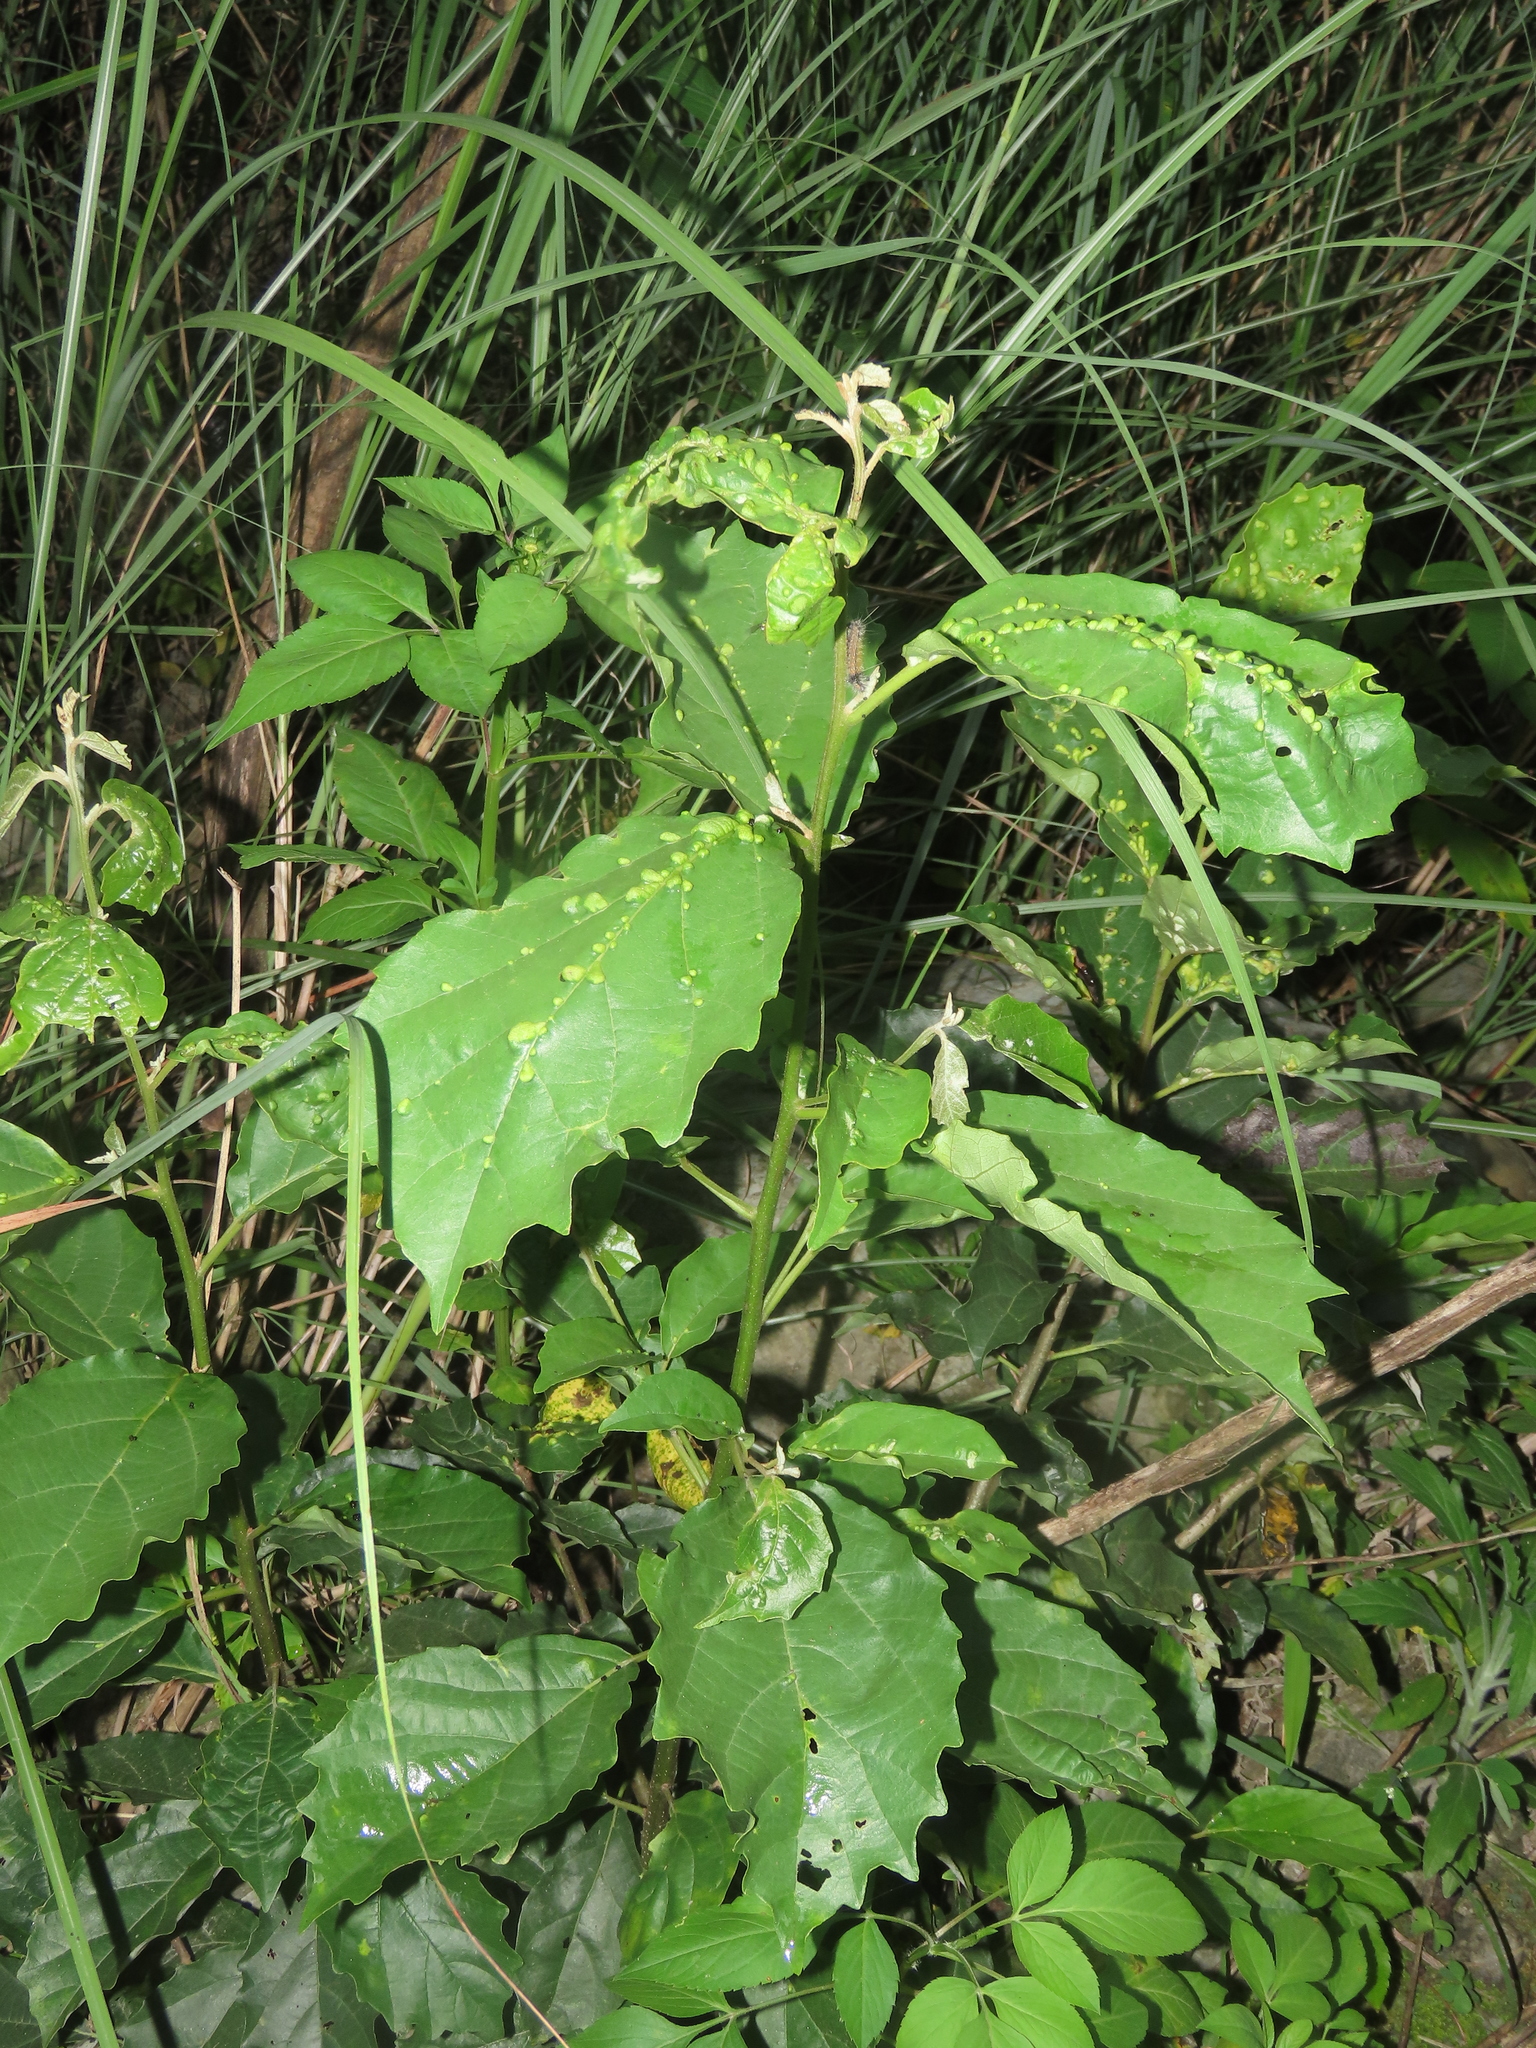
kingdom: Plantae
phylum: Tracheophyta
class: Magnoliopsida
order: Boraginales
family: Cordiaceae
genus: Cordia
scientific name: Cordia dichotoma
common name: Fragrant manjack
